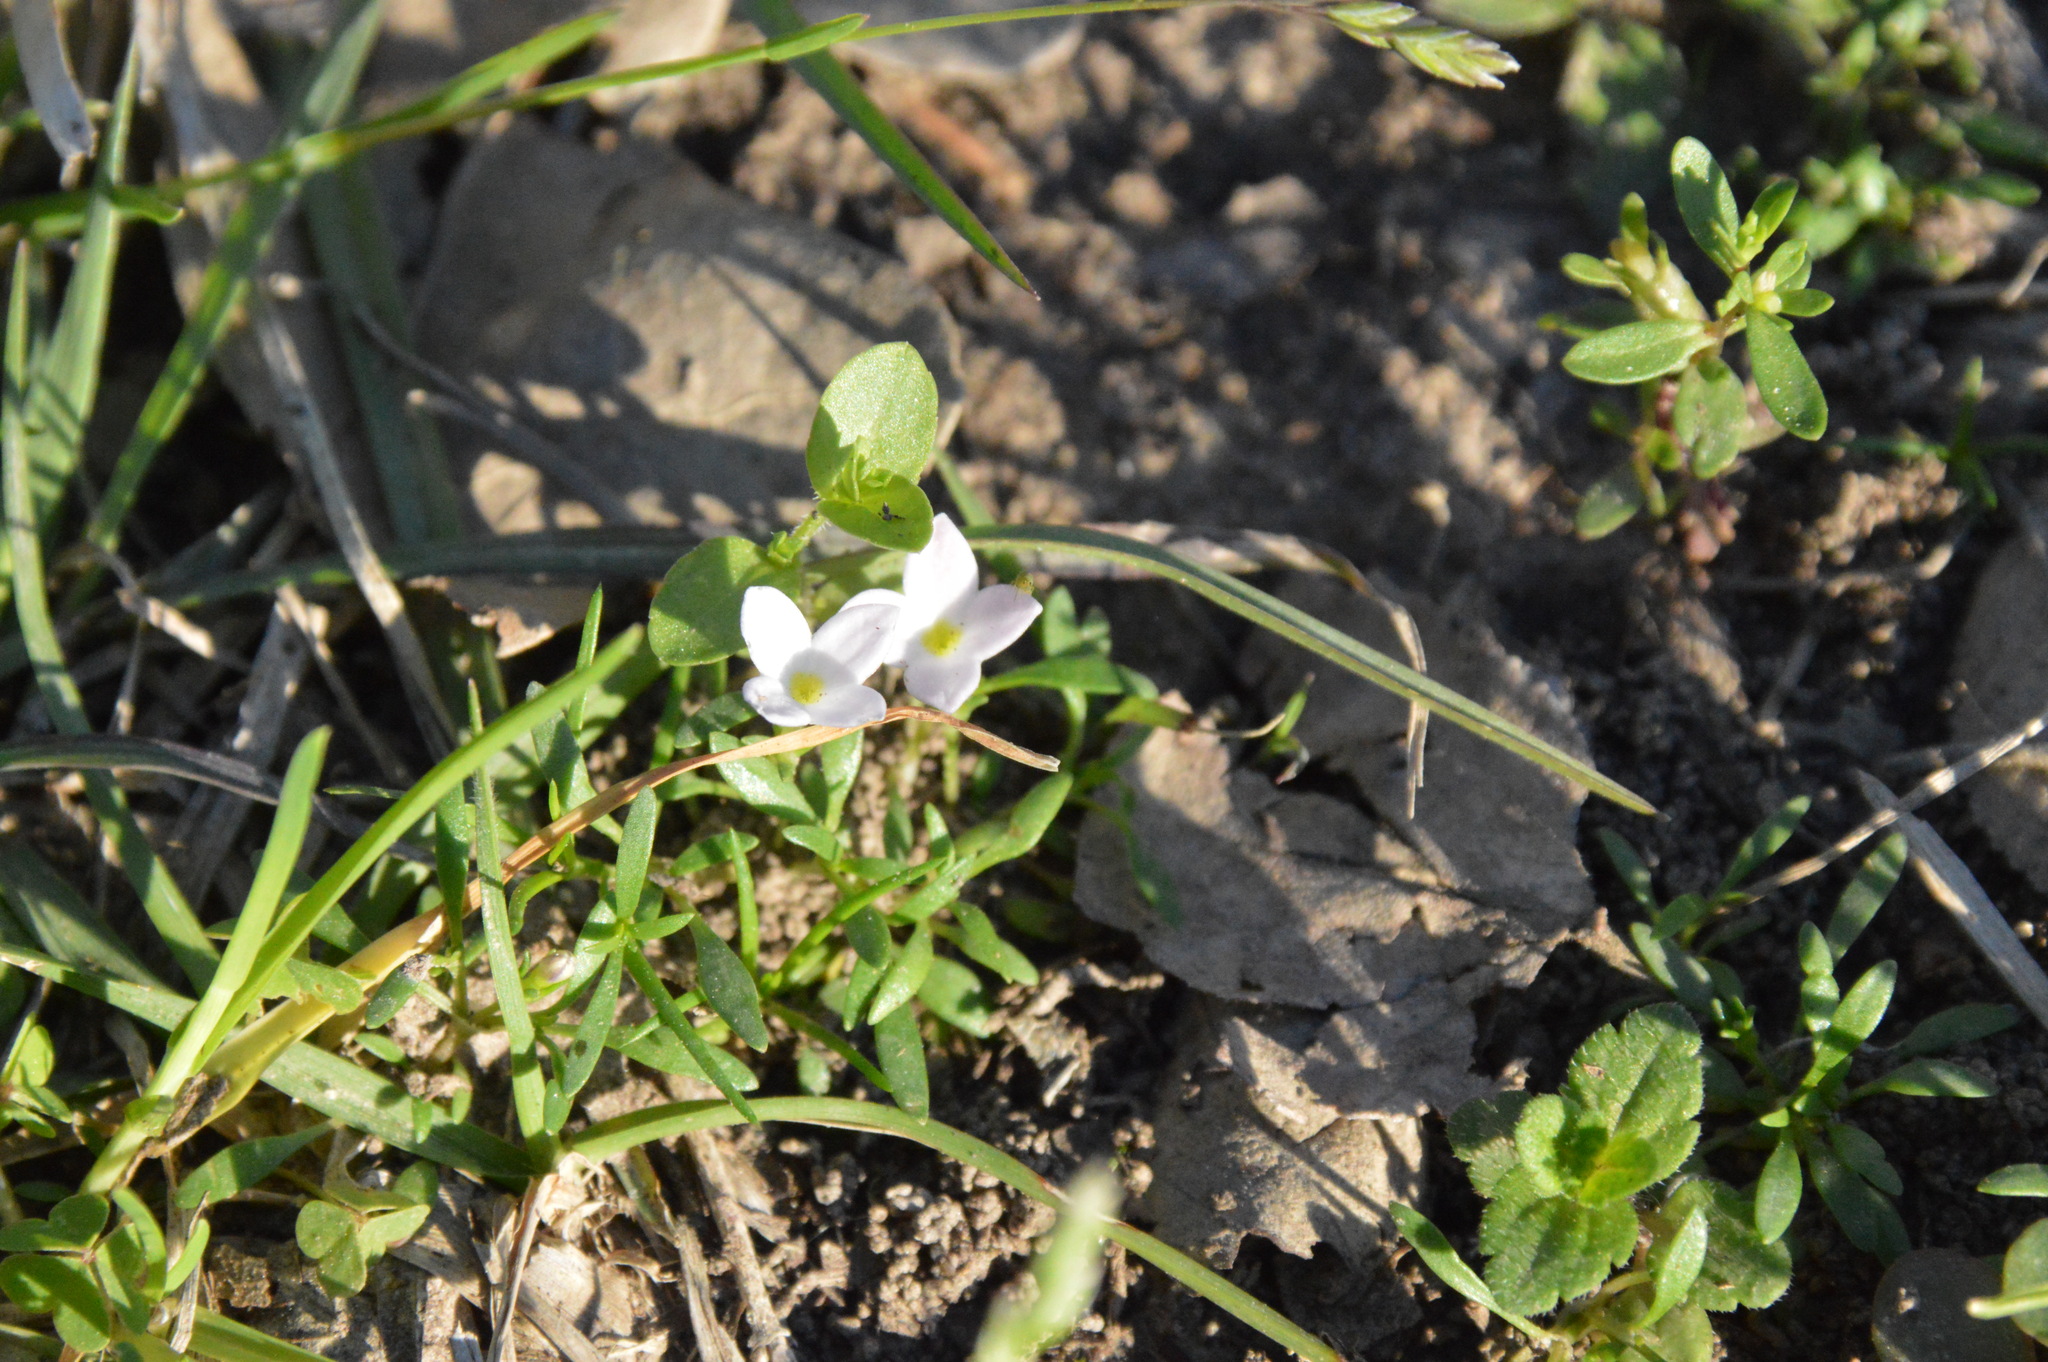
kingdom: Plantae
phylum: Tracheophyta
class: Magnoliopsida
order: Gentianales
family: Rubiaceae
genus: Houstonia
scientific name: Houstonia rosea
